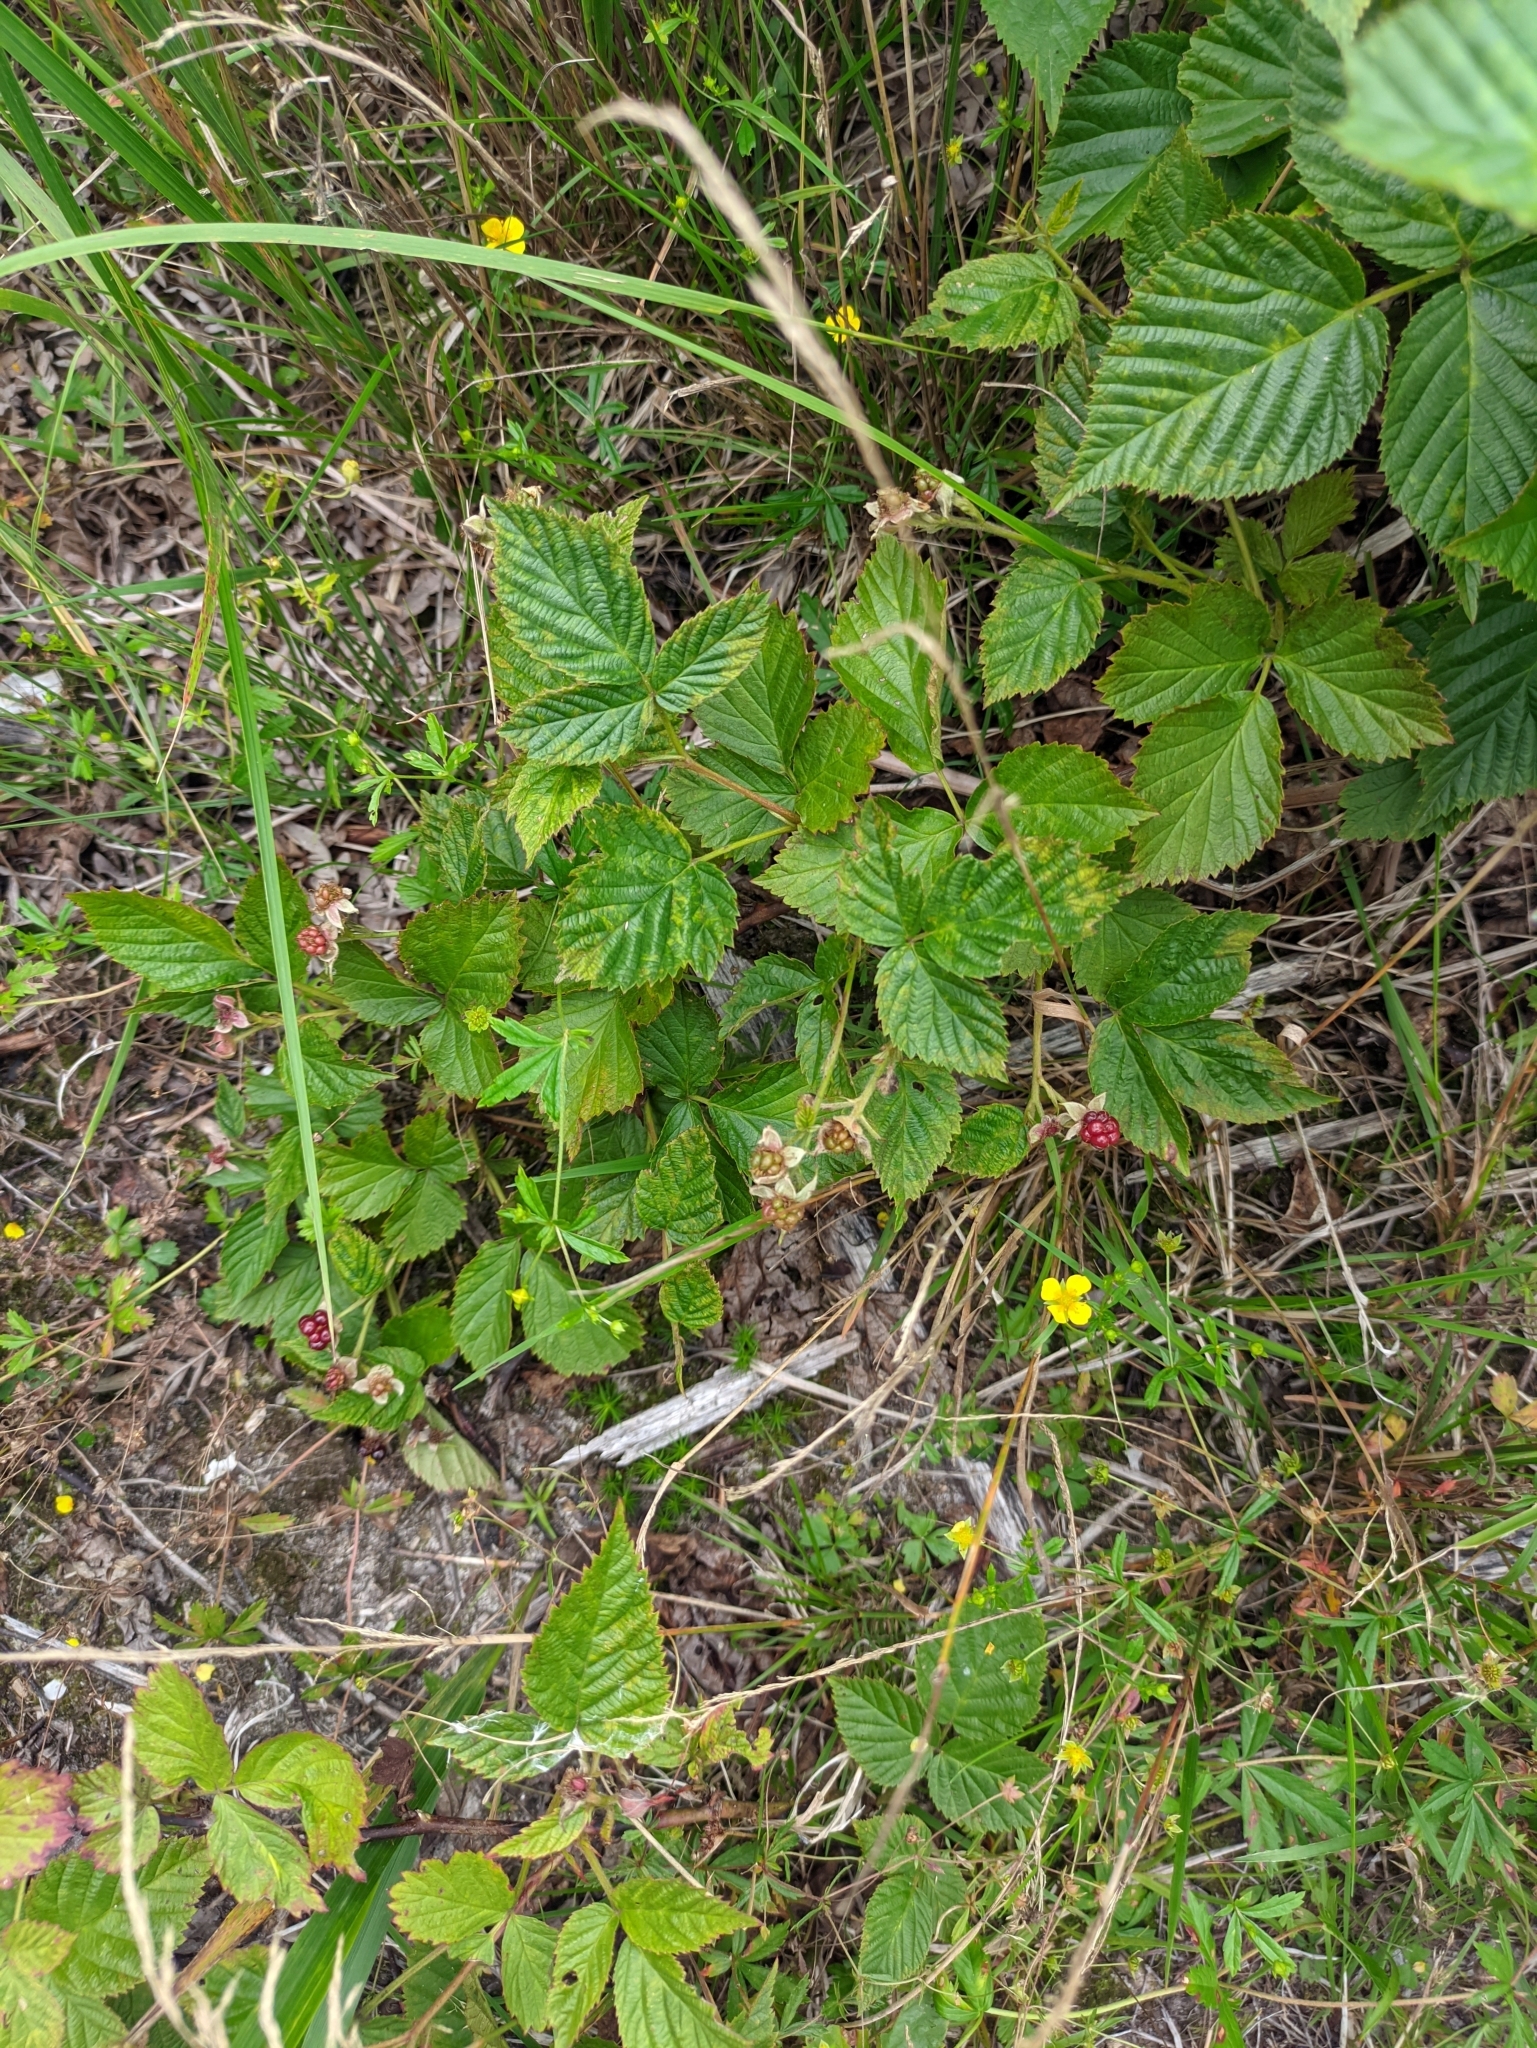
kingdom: Plantae
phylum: Tracheophyta
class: Magnoliopsida
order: Rosales
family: Rosaceae
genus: Rubus
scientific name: Rubus polonicus
